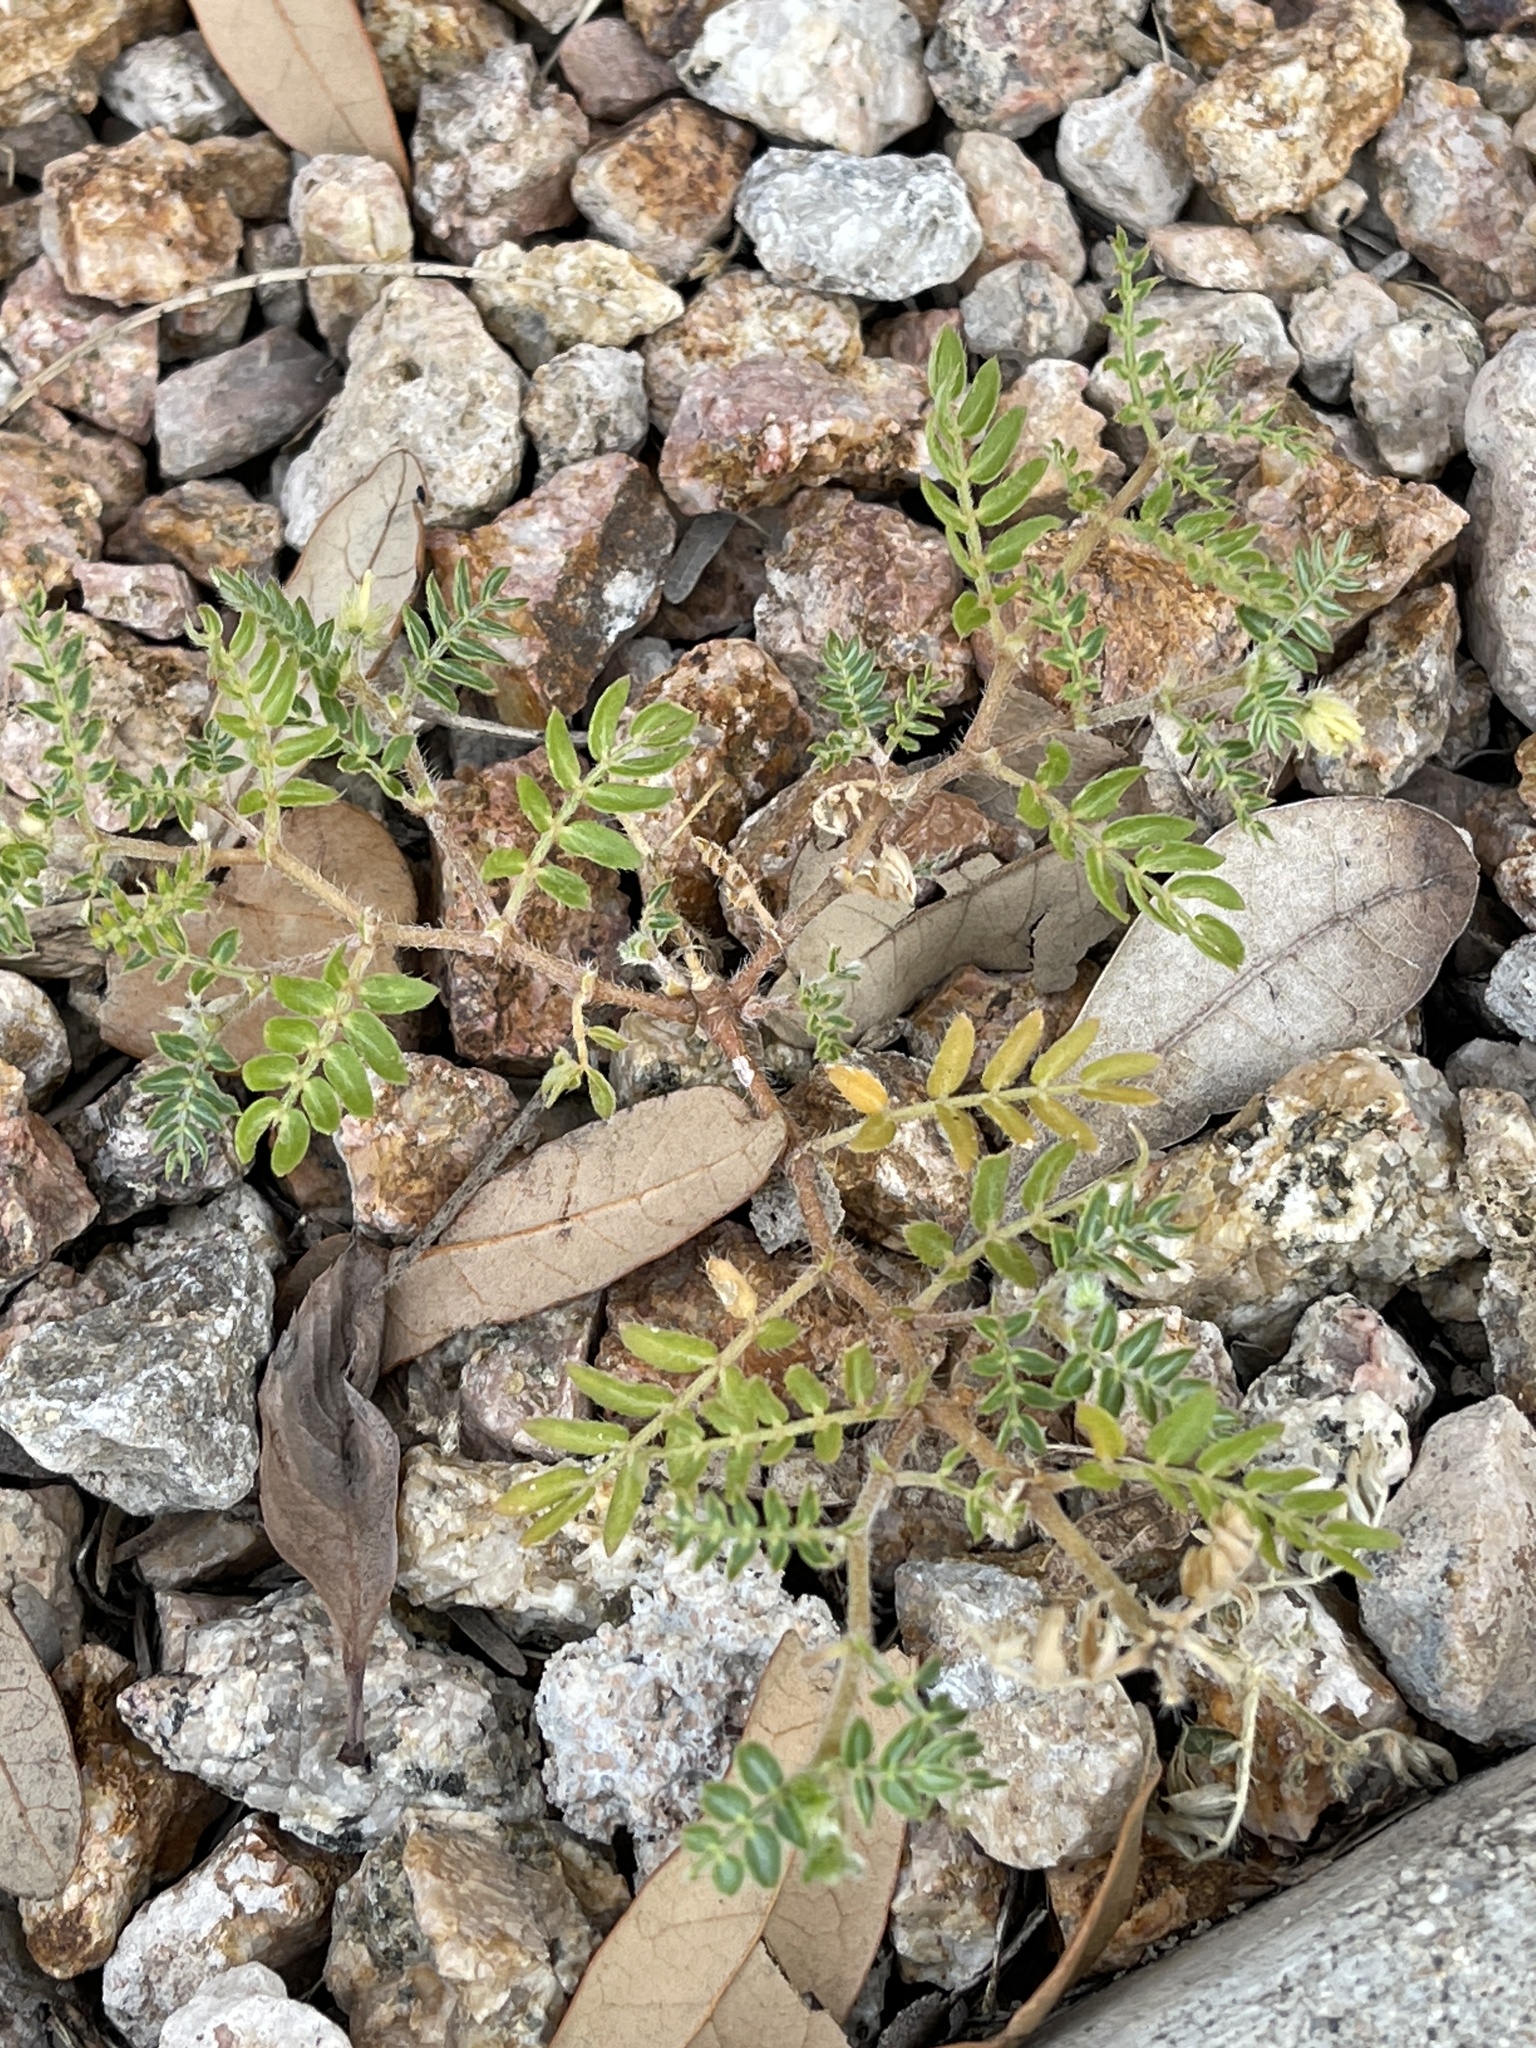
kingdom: Plantae
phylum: Tracheophyta
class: Magnoliopsida
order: Zygophyllales
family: Zygophyllaceae
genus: Tribulus
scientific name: Tribulus terrestris
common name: Puncturevine
